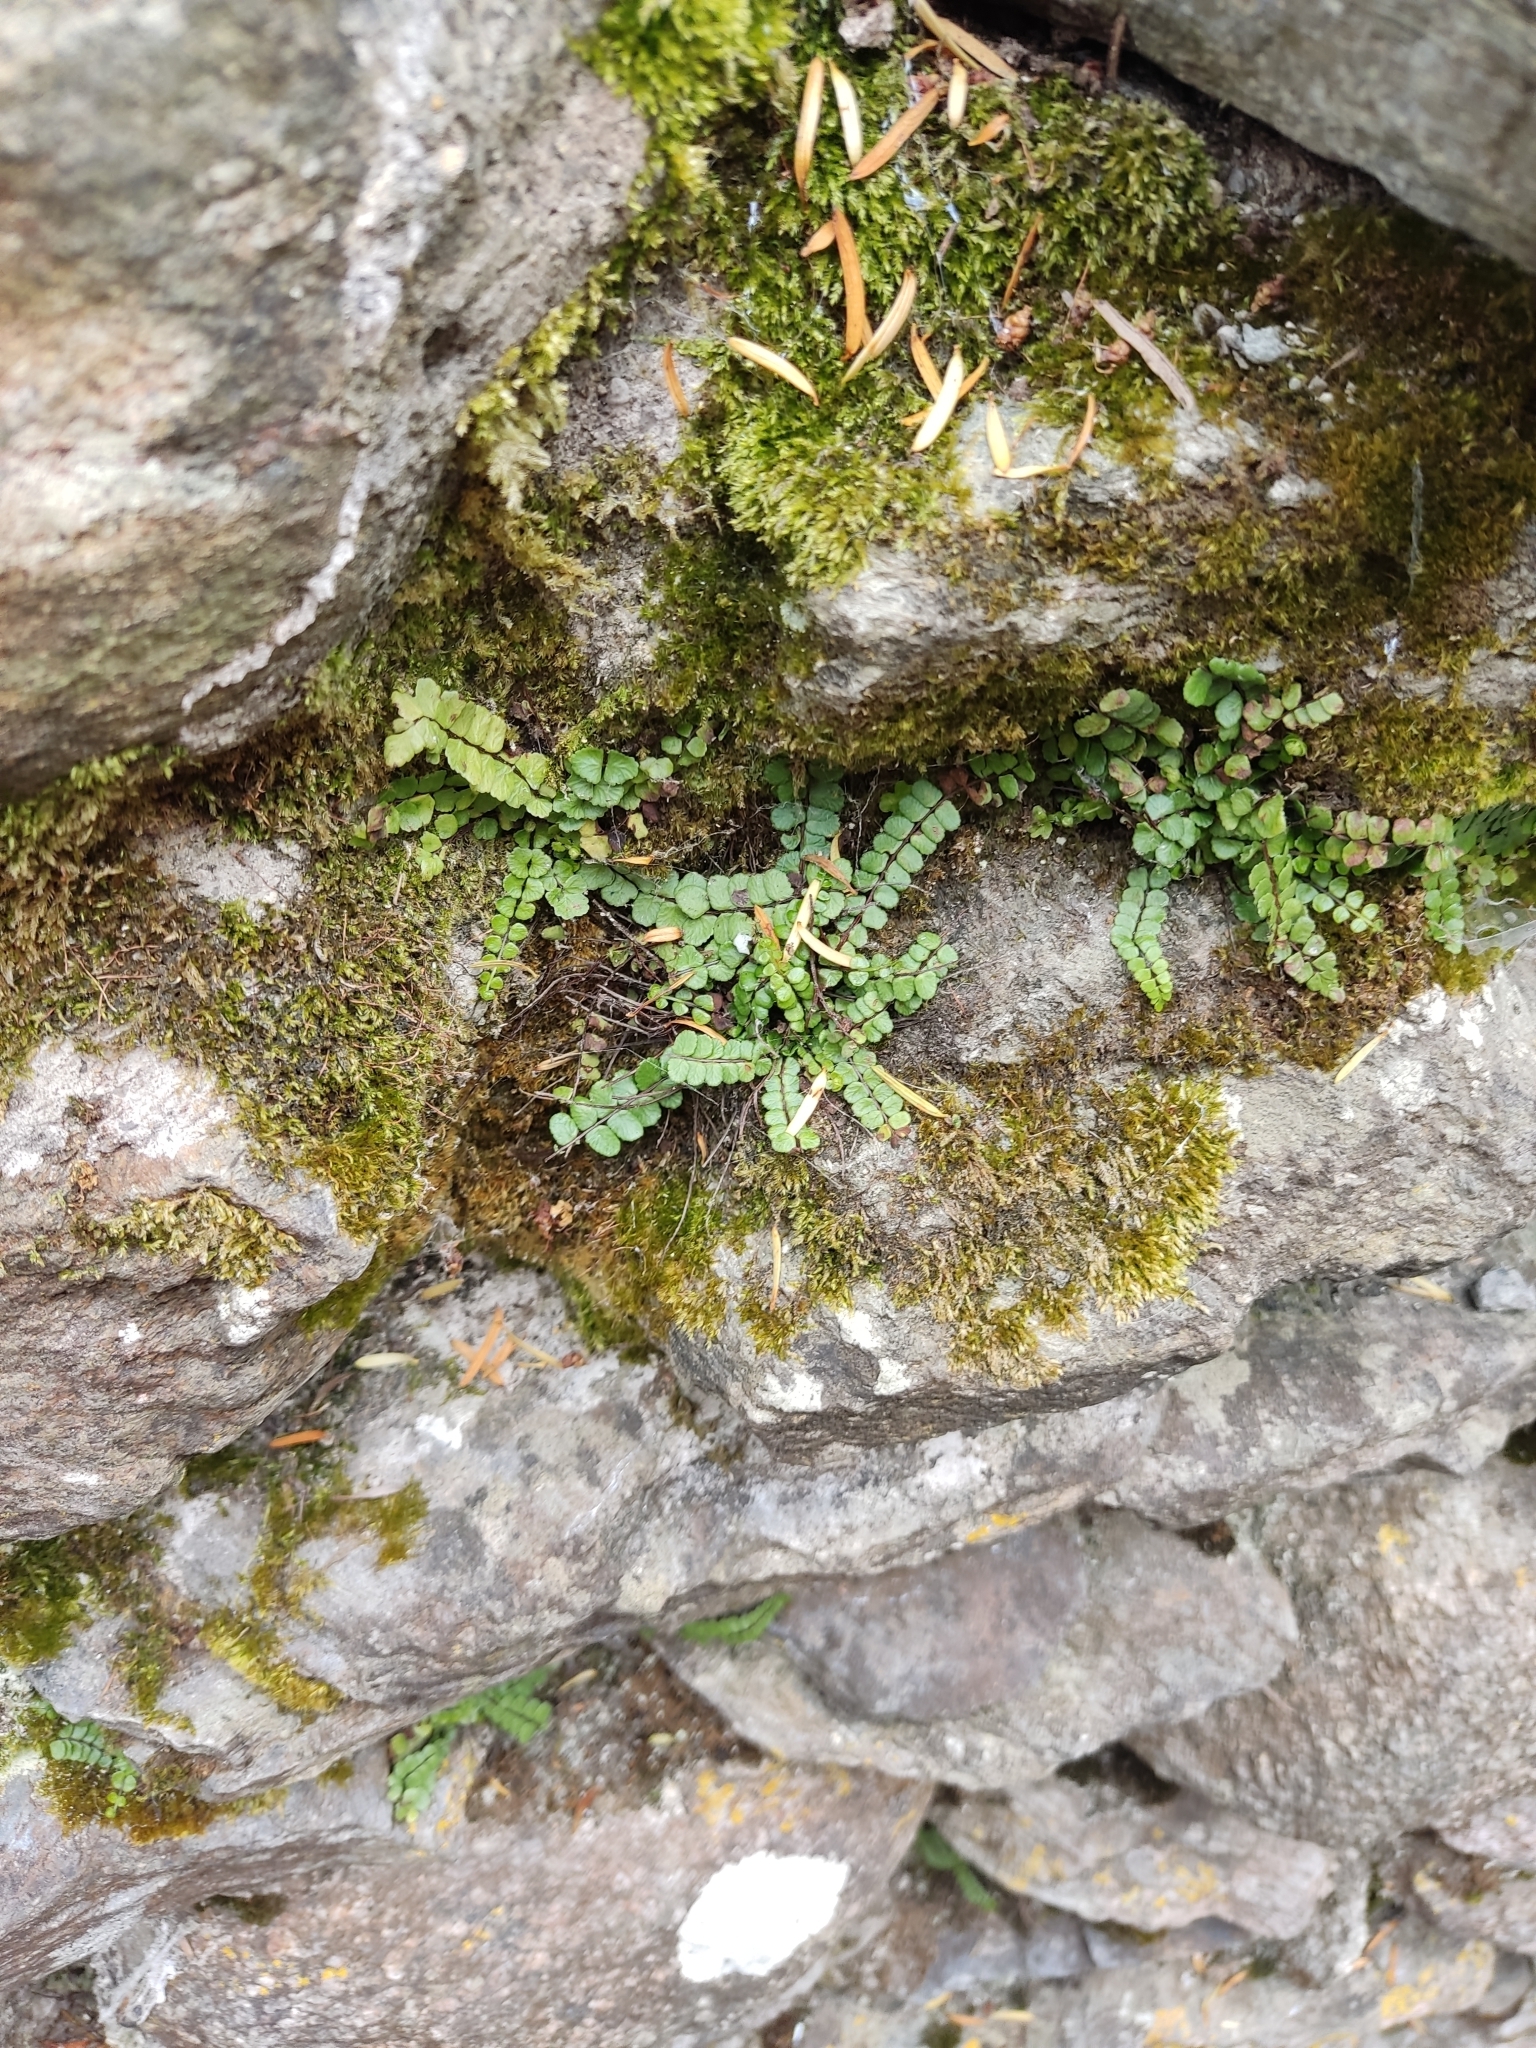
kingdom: Plantae
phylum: Tracheophyta
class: Polypodiopsida
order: Polypodiales
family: Aspleniaceae
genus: Asplenium
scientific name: Asplenium trichomanes
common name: Maidenhair spleenwort
